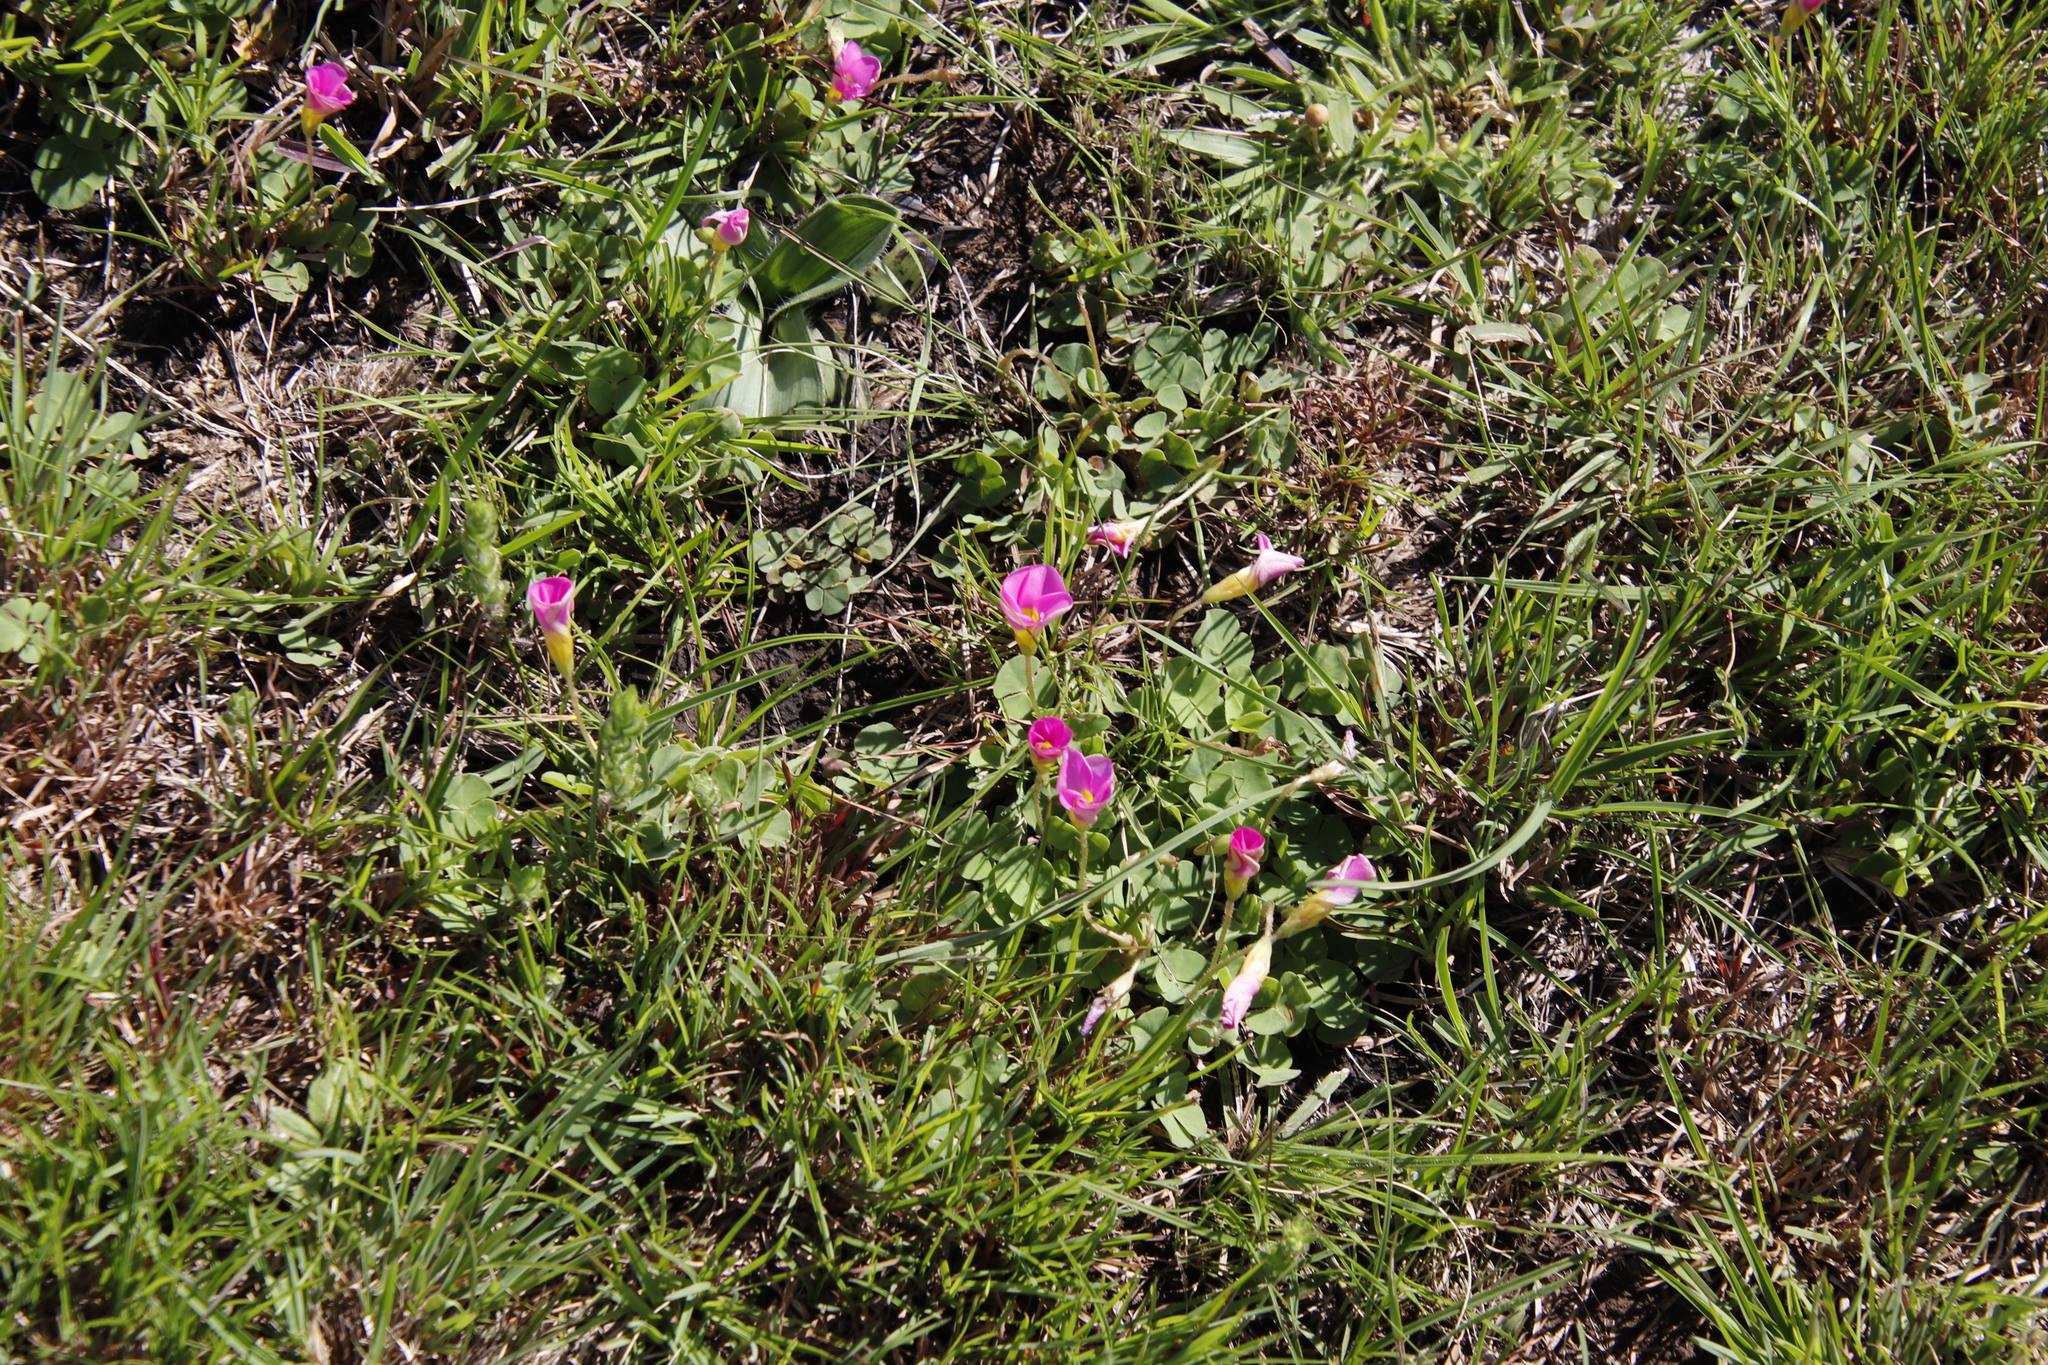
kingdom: Plantae
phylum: Tracheophyta
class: Magnoliopsida
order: Oxalidales
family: Oxalidaceae
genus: Oxalis
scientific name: Oxalis obliquifolia
